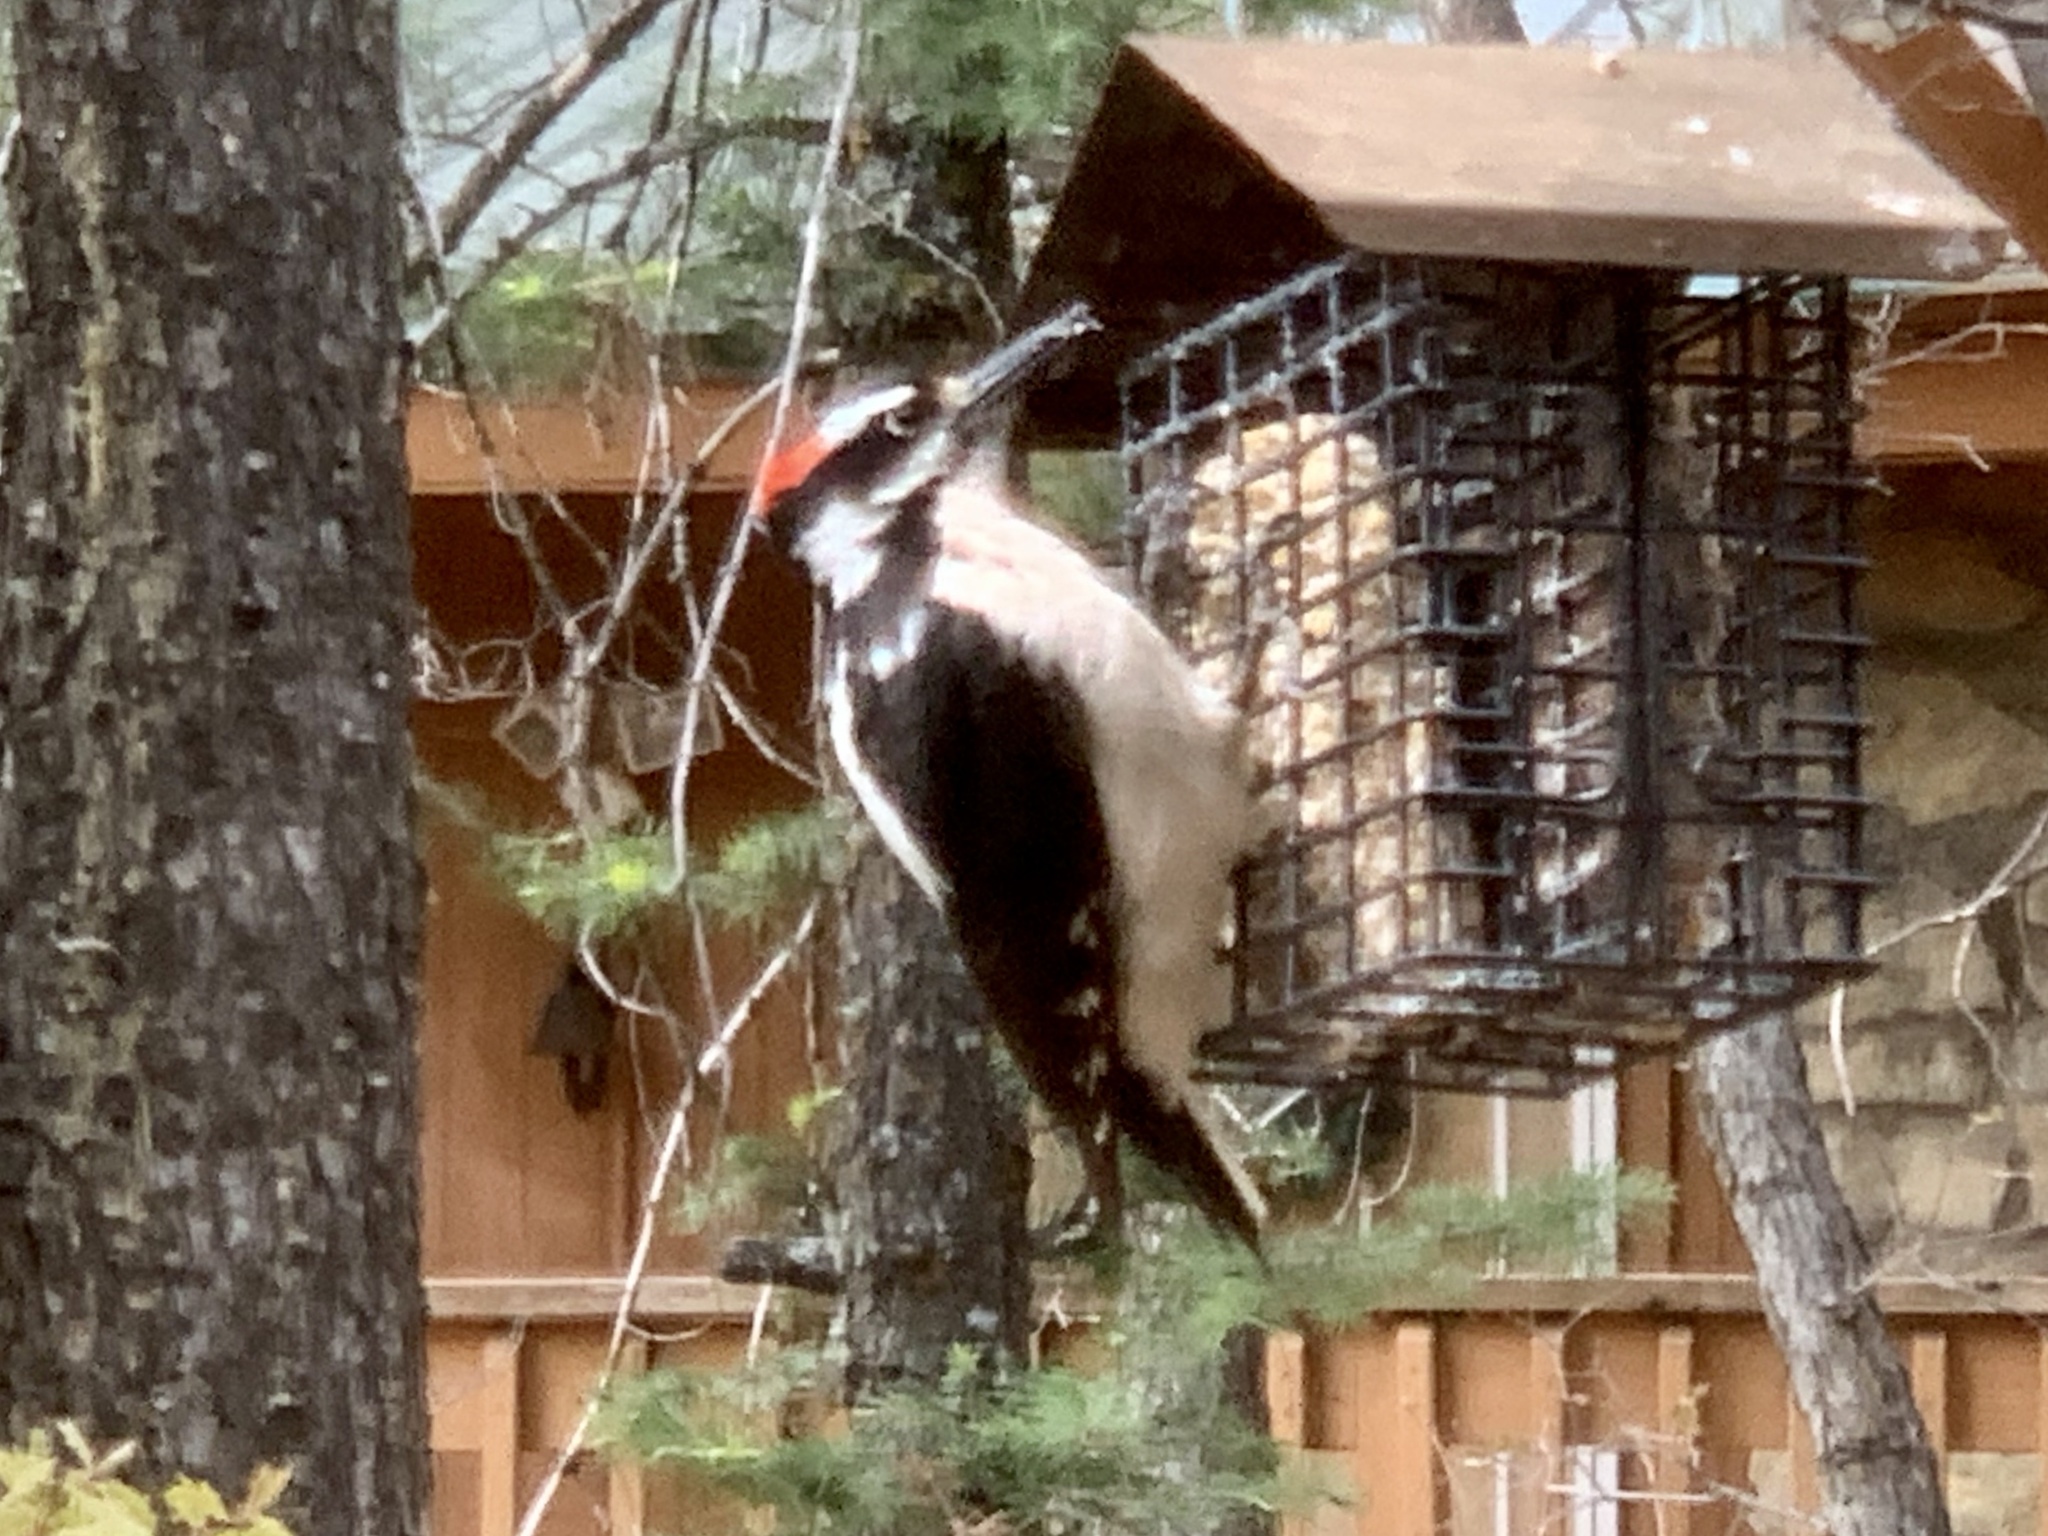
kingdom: Animalia
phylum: Chordata
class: Aves
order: Piciformes
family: Picidae
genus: Leuconotopicus
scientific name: Leuconotopicus villosus
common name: Hairy woodpecker
